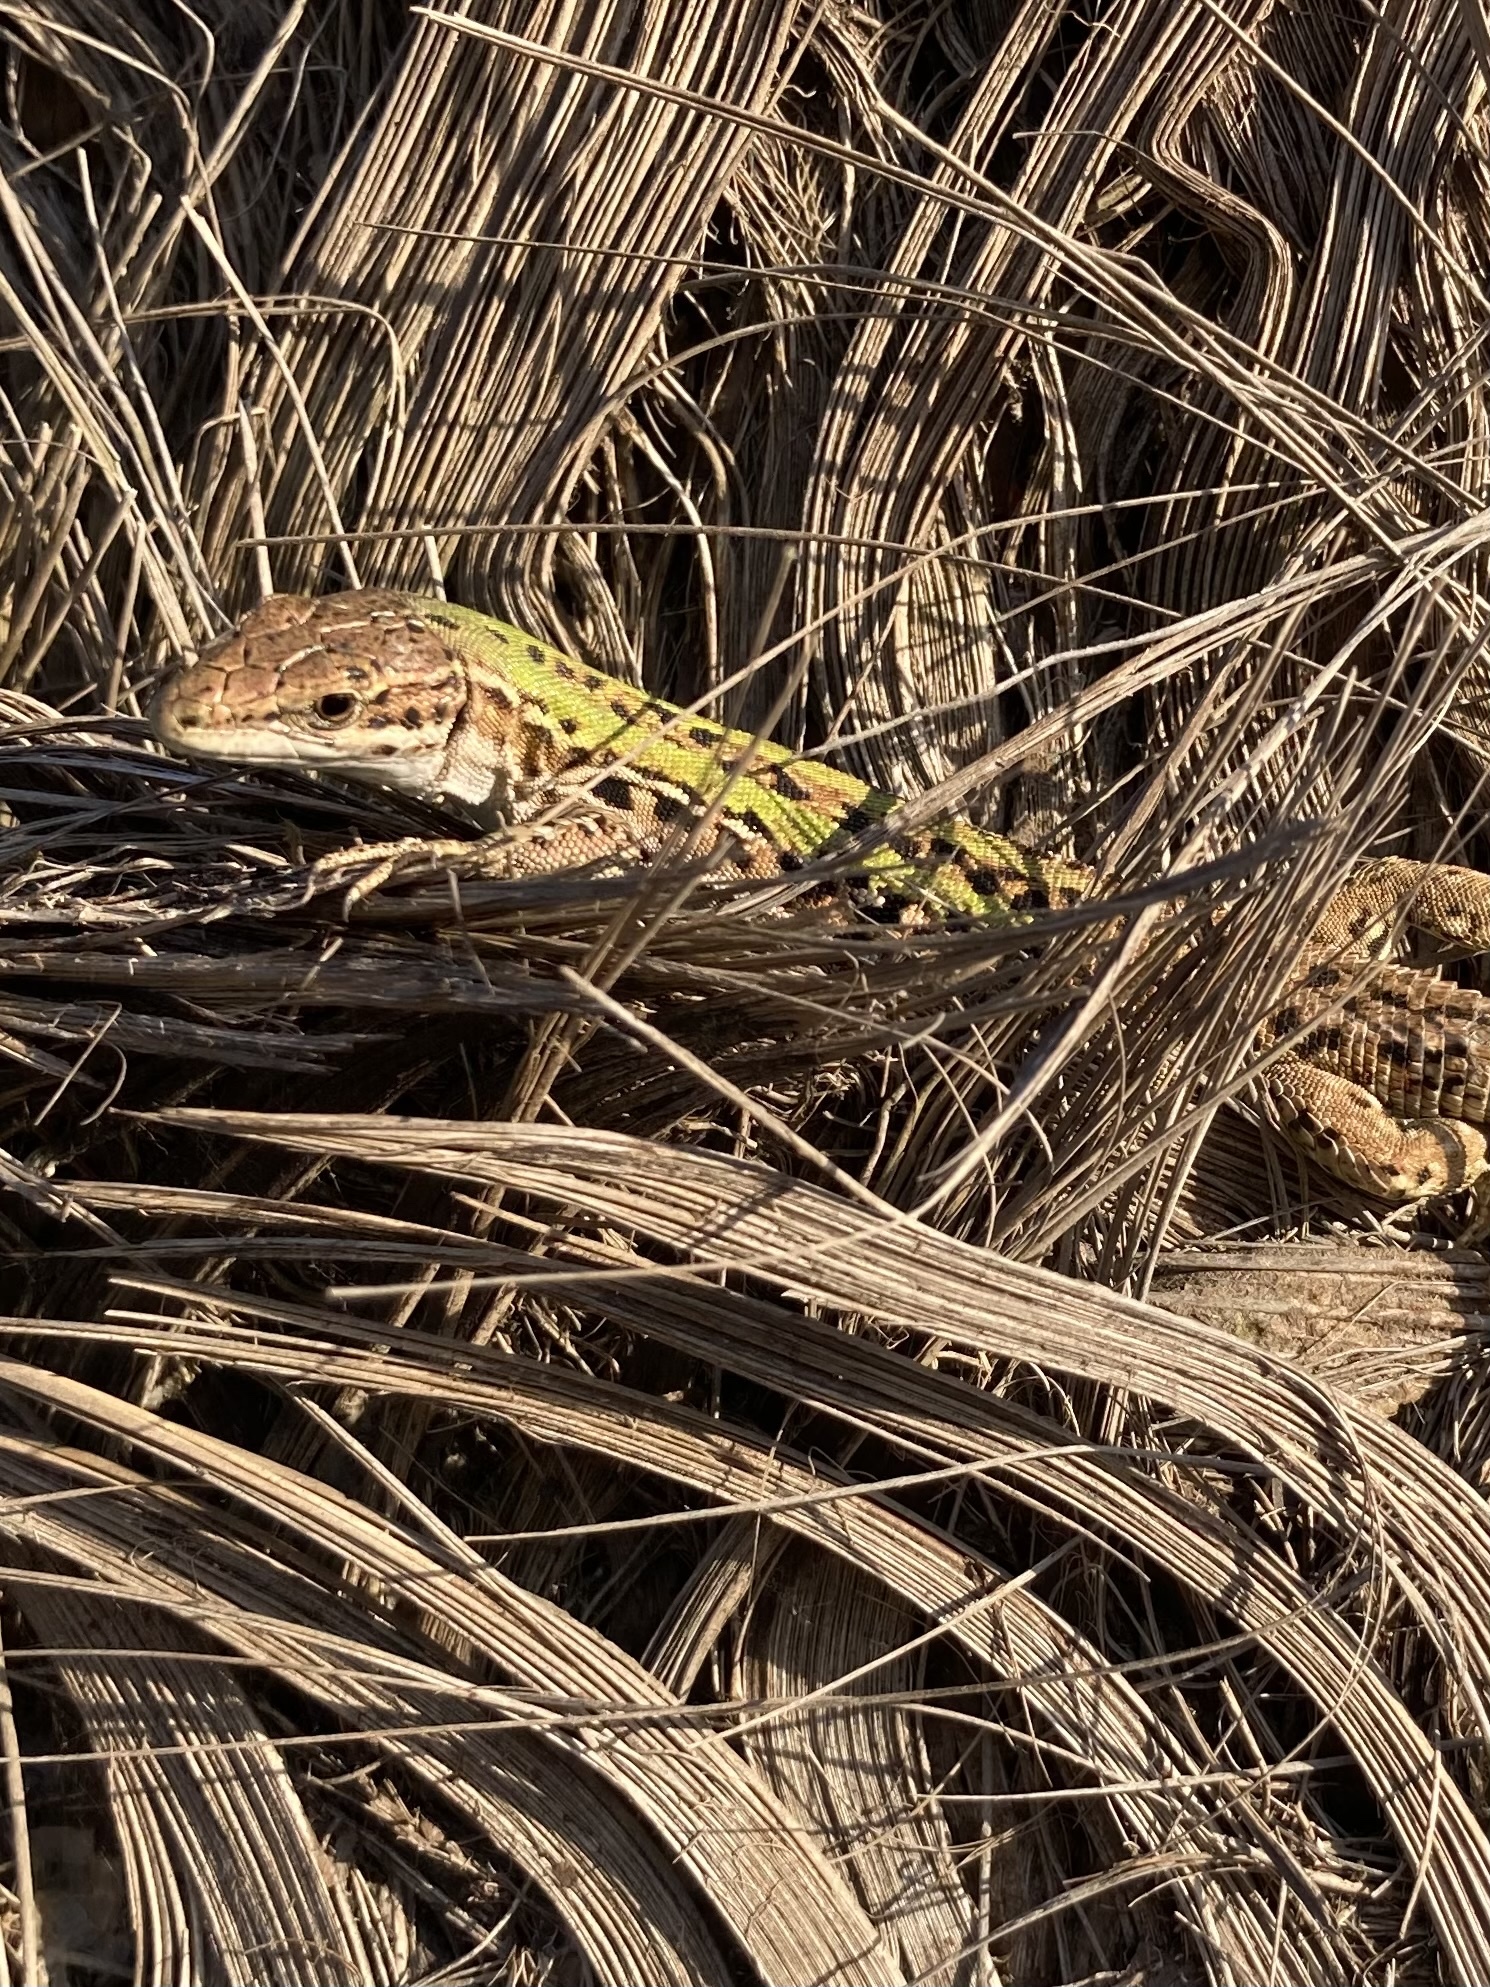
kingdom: Animalia
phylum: Chordata
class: Squamata
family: Lacertidae
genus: Podarcis
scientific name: Podarcis siculus
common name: Italian wall lizard
